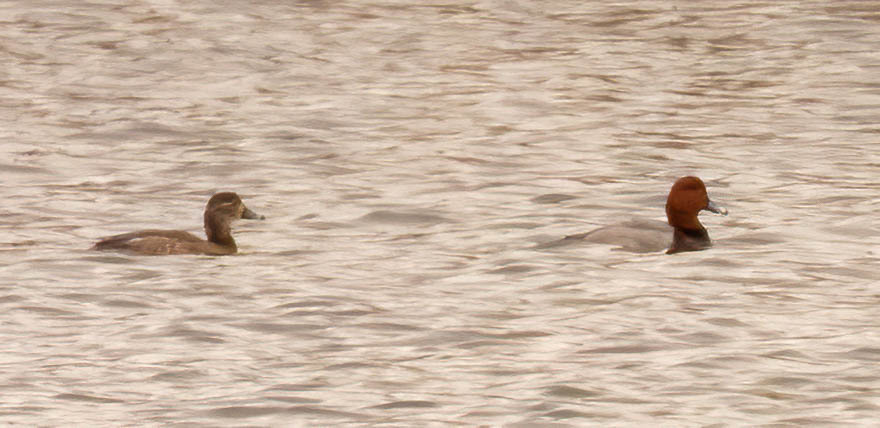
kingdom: Animalia
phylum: Chordata
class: Aves
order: Anseriformes
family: Anatidae
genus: Aythya
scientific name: Aythya americana
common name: Redhead
